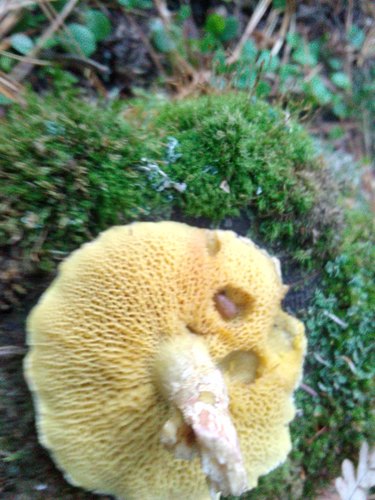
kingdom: Fungi
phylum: Basidiomycota
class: Agaricomycetes
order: Boletales
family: Suillaceae
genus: Suillus
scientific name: Suillus acidus
